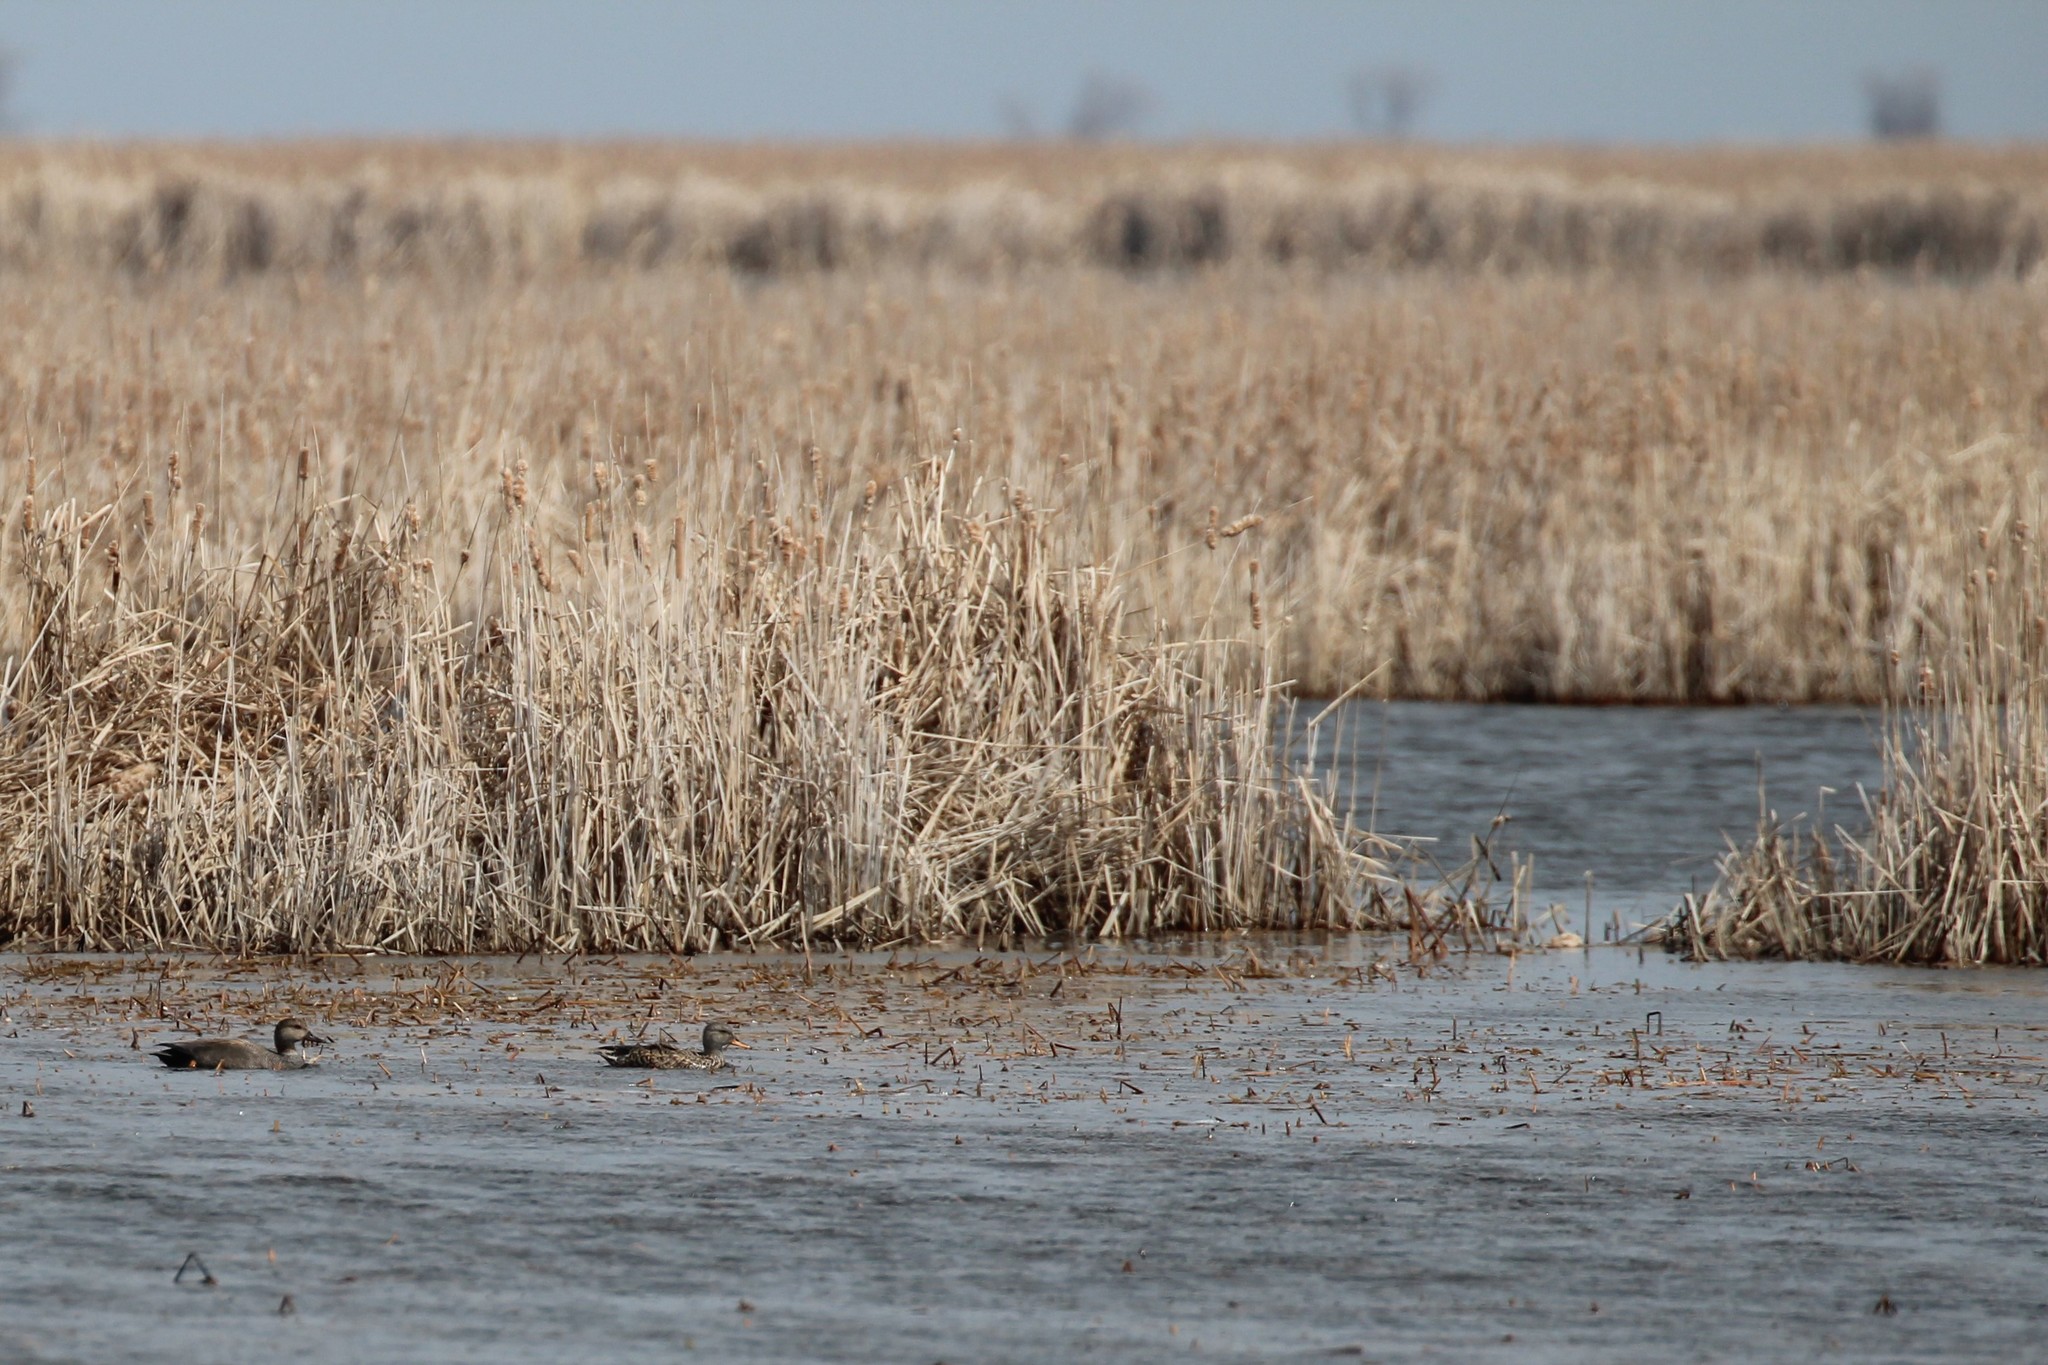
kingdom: Animalia
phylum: Chordata
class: Aves
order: Anseriformes
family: Anatidae
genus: Mareca
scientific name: Mareca strepera
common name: Gadwall
